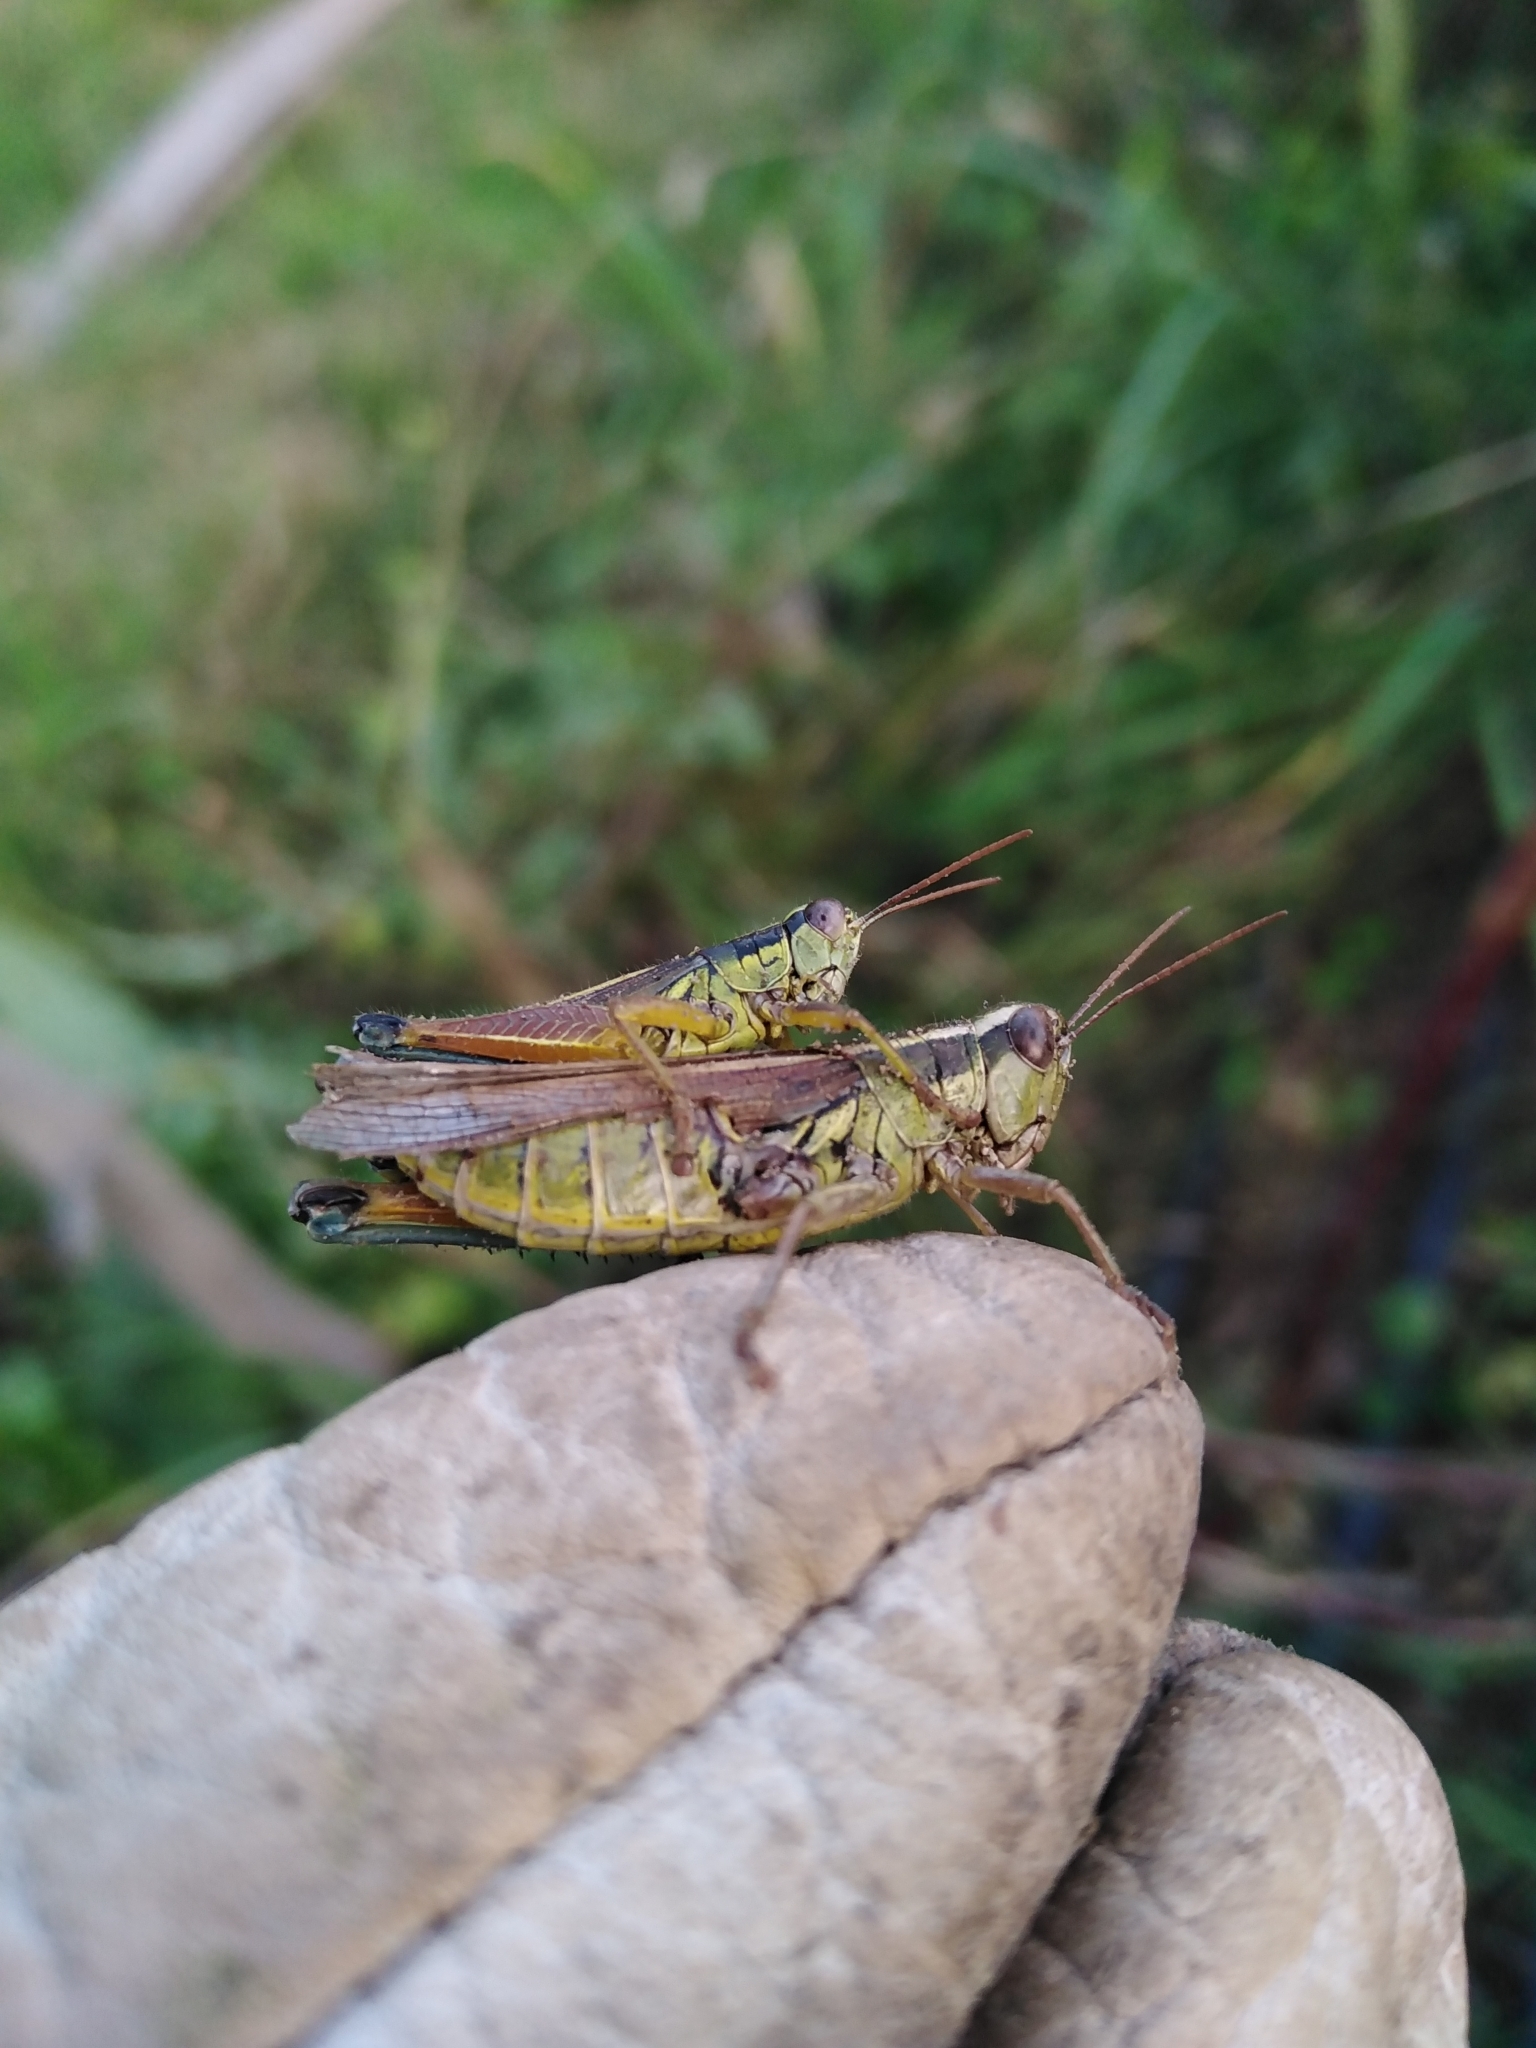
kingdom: Animalia
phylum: Arthropoda
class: Insecta
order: Orthoptera
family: Acrididae
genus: Dichroplus
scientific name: Dichroplus vittiger
